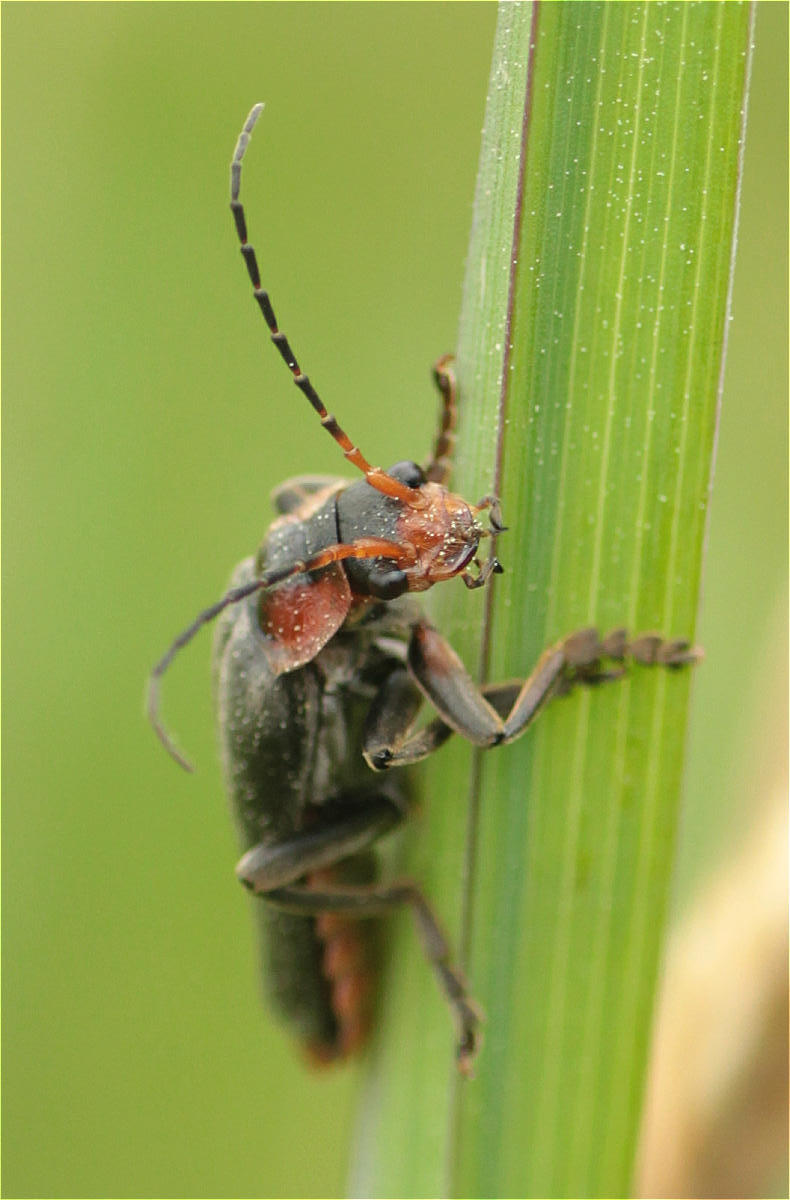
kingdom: Animalia
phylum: Arthropoda
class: Insecta
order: Coleoptera
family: Cantharidae
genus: Cantharis
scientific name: Cantharis fusca
